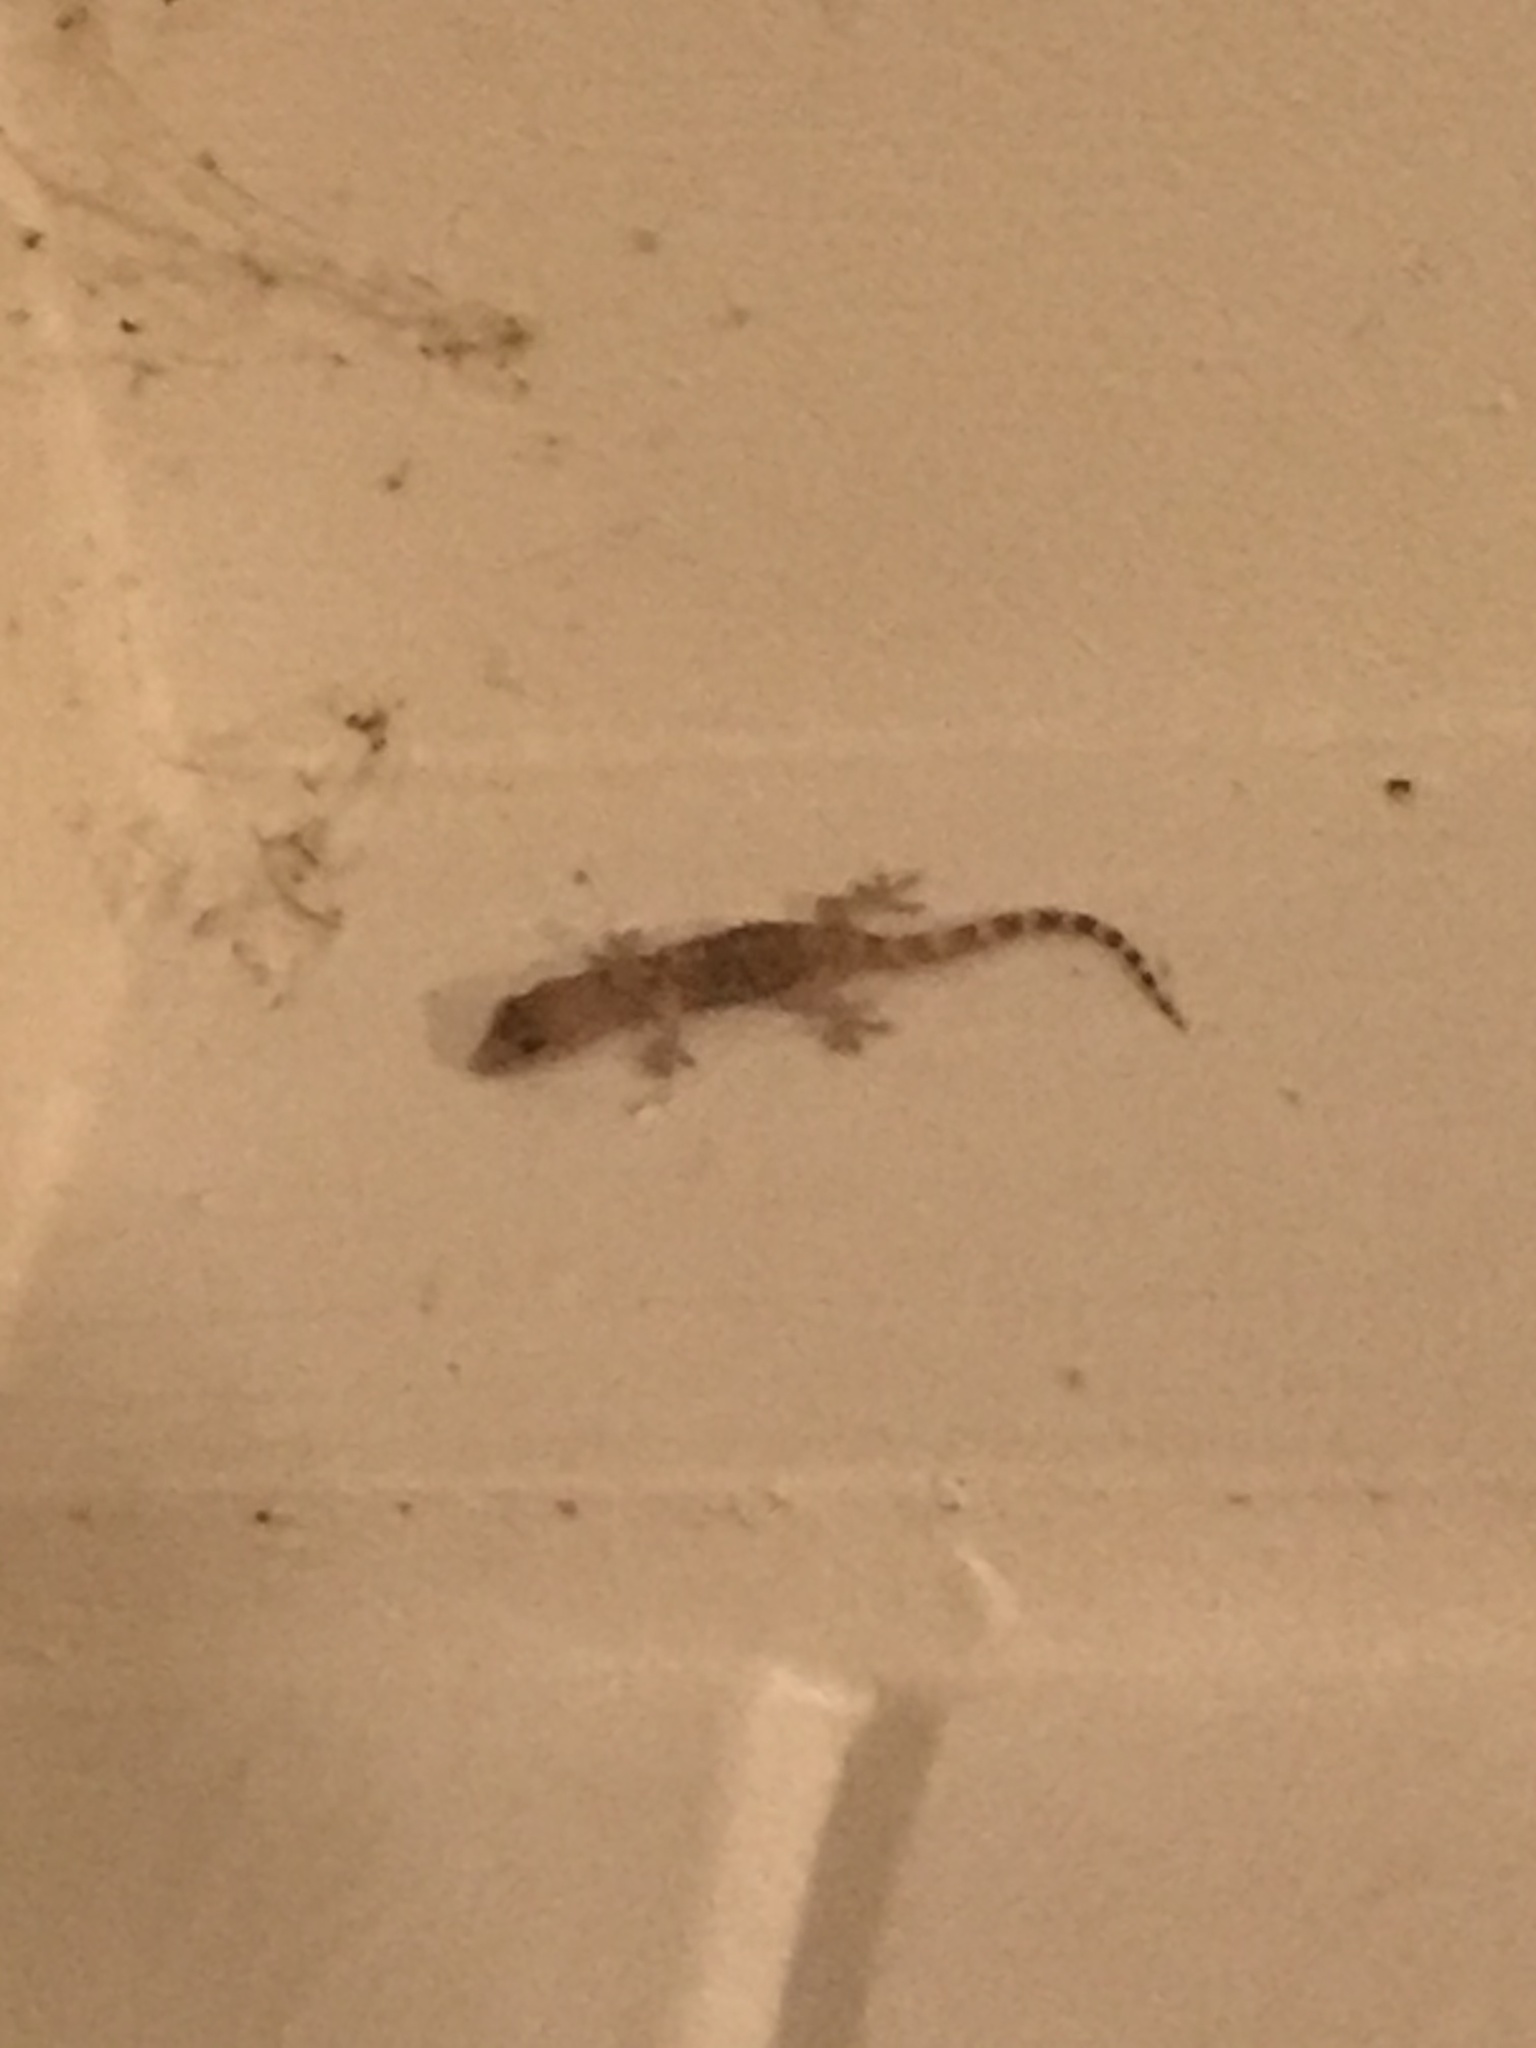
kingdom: Animalia
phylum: Chordata
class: Squamata
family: Gekkonidae
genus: Hemidactylus
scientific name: Hemidactylus turcicus
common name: Turkish gecko
